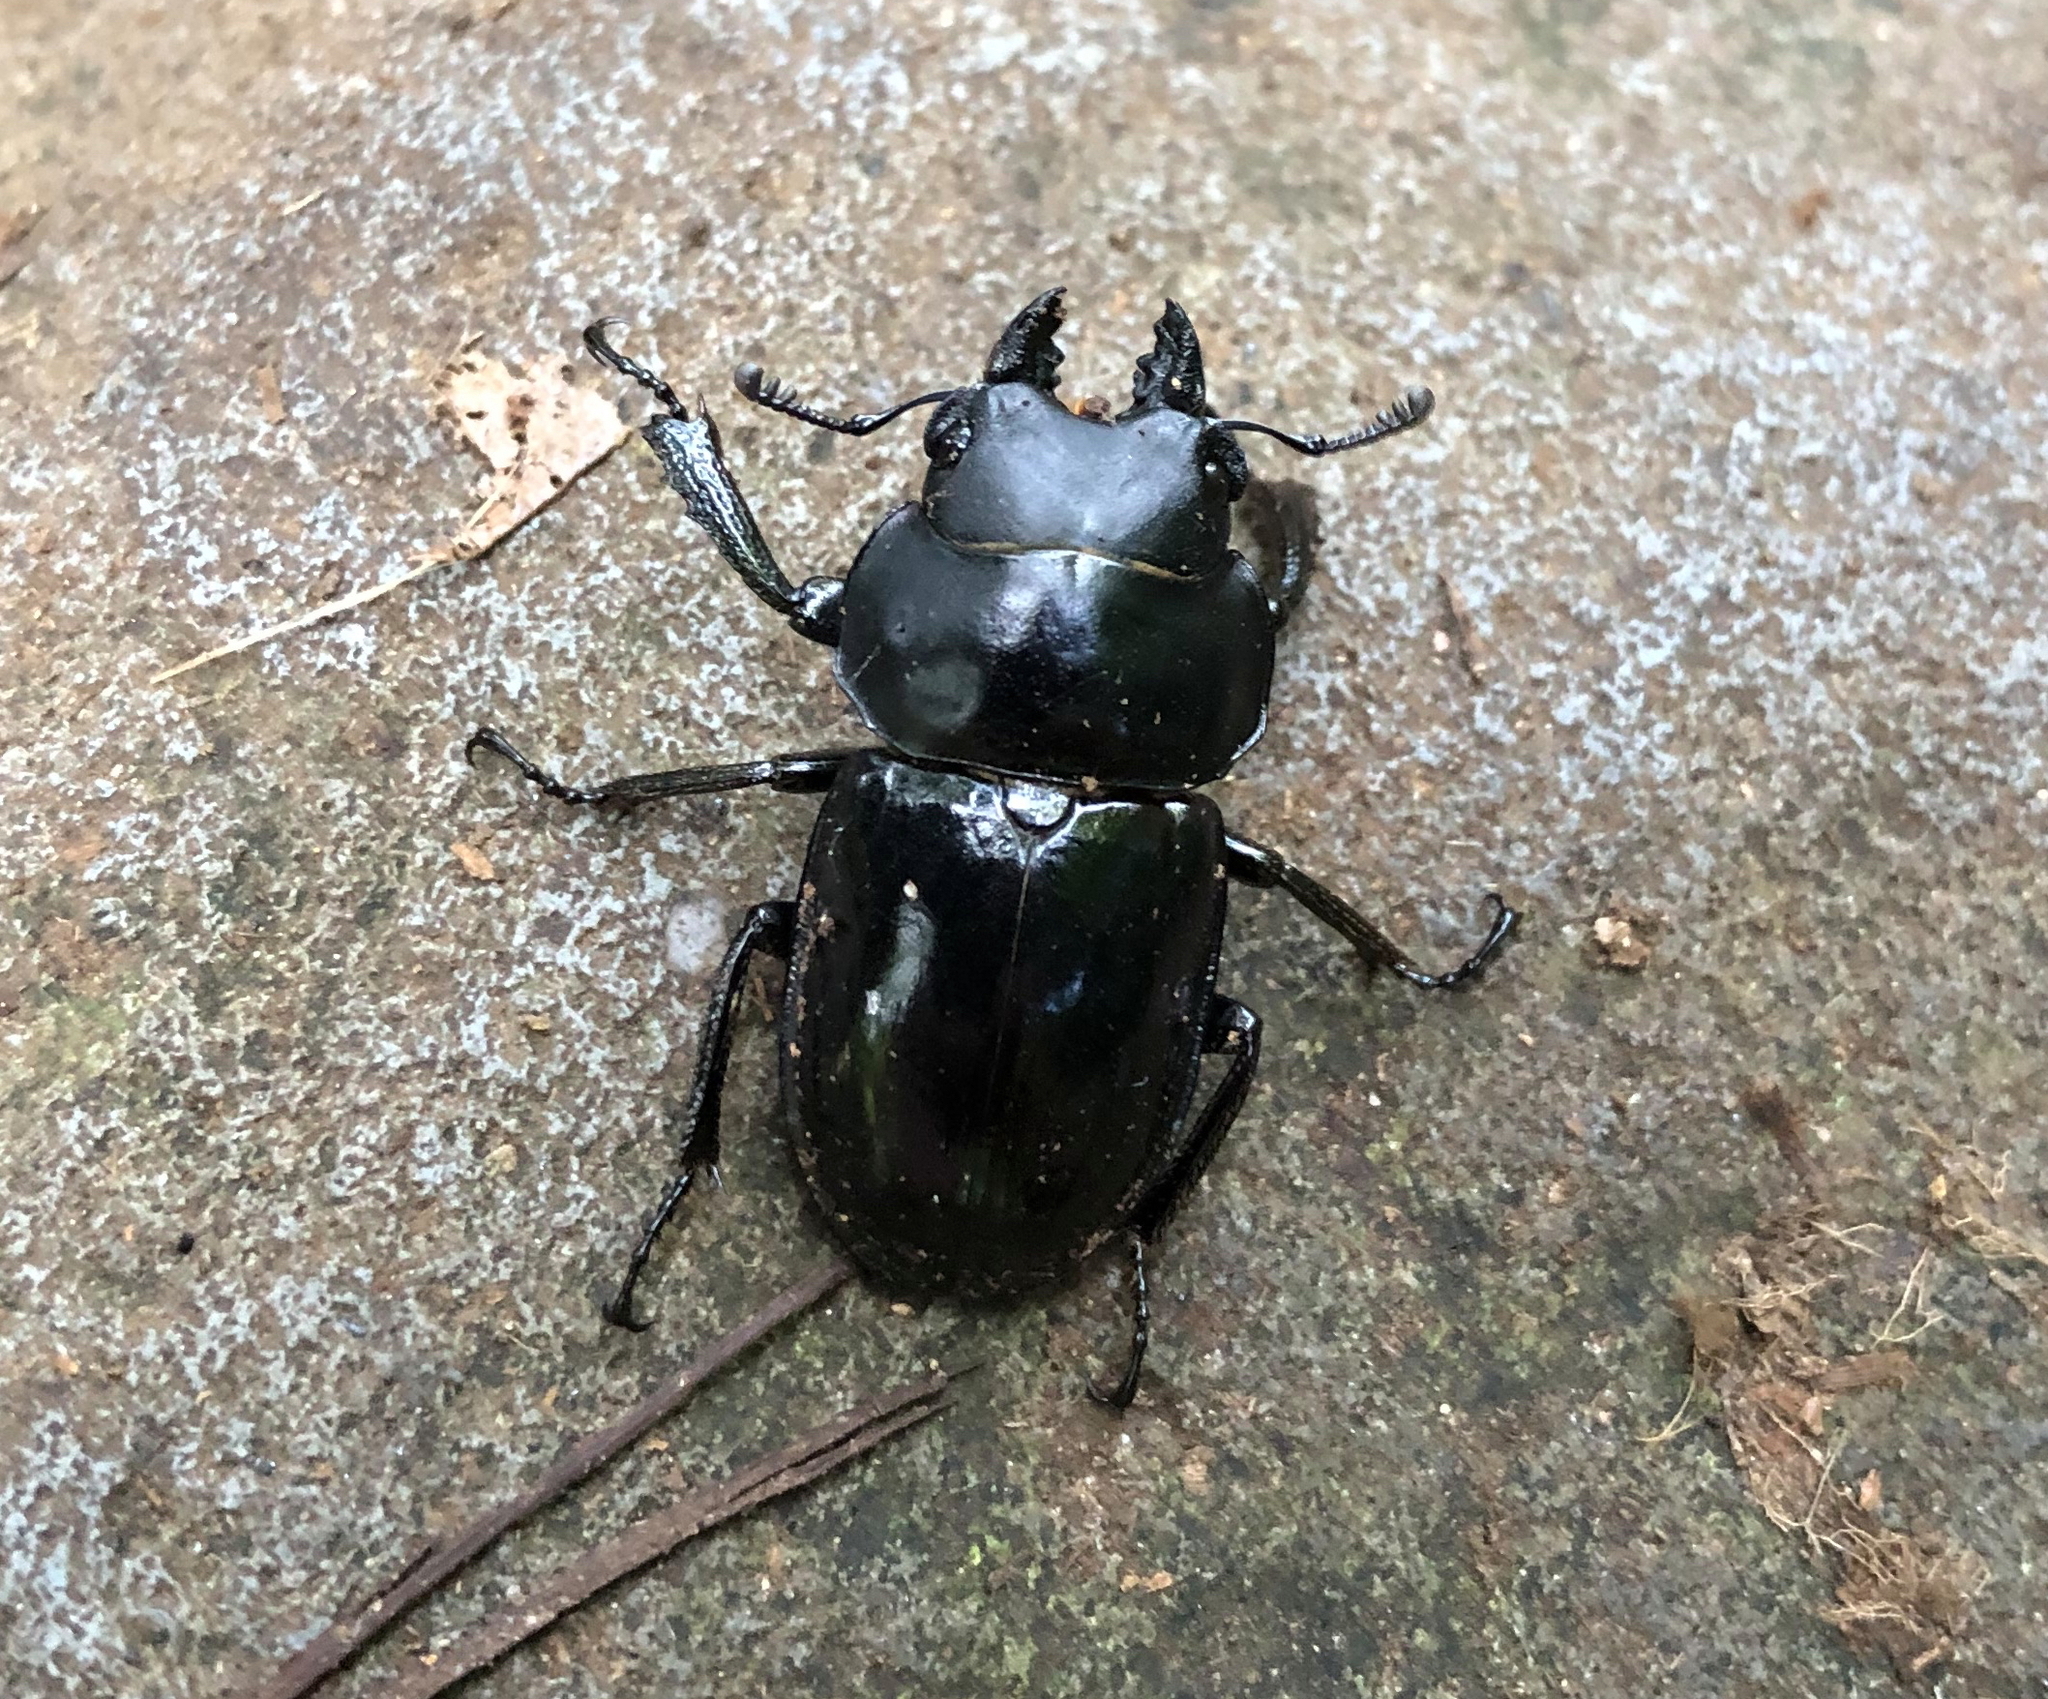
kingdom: Animalia
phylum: Arthropoda
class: Insecta
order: Coleoptera
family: Lucanidae
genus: Neolucanus
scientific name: Neolucanus laticollis
